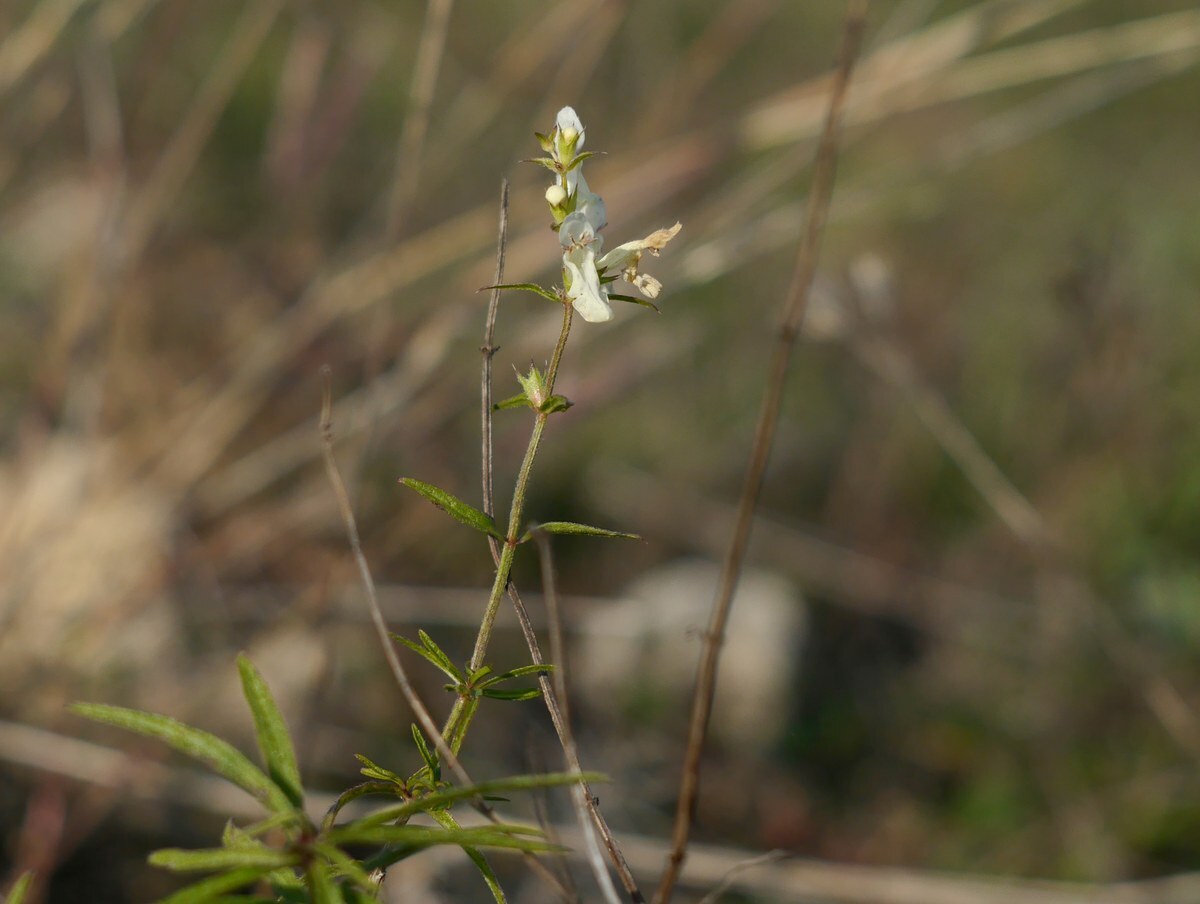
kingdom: Plantae
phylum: Tracheophyta
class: Magnoliopsida
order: Lamiales
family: Lamiaceae
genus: Stachys
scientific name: Stachys recta
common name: Perennial yellow-woundwort
